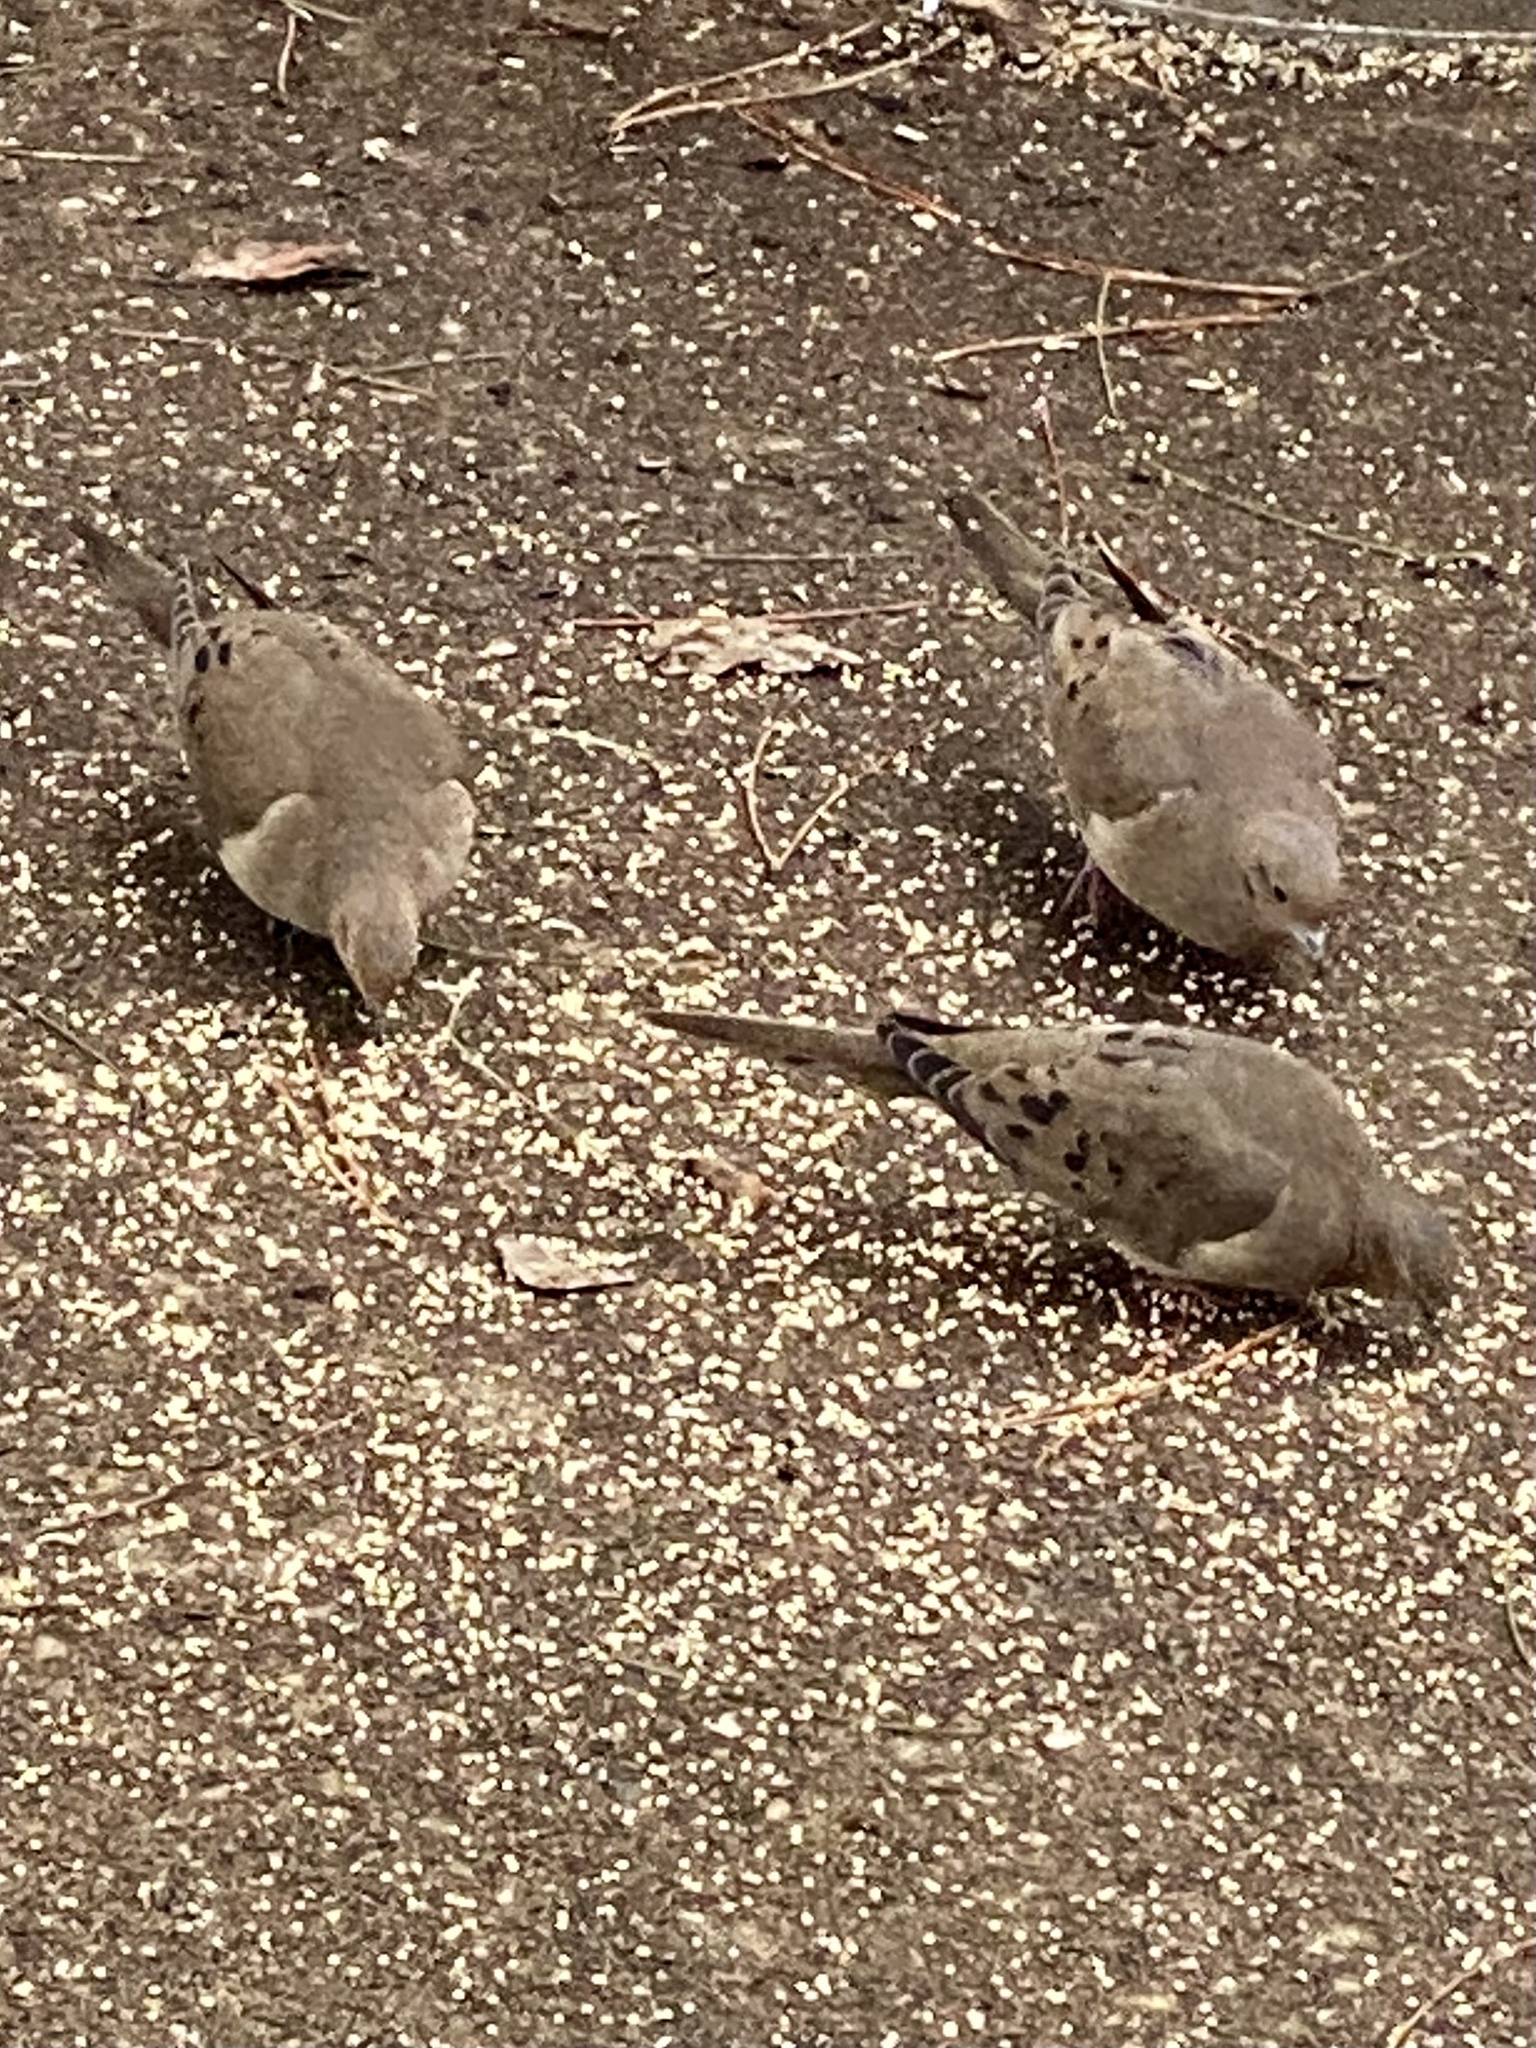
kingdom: Animalia
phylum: Chordata
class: Aves
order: Columbiformes
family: Columbidae
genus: Zenaida
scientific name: Zenaida macroura
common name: Mourning dove
